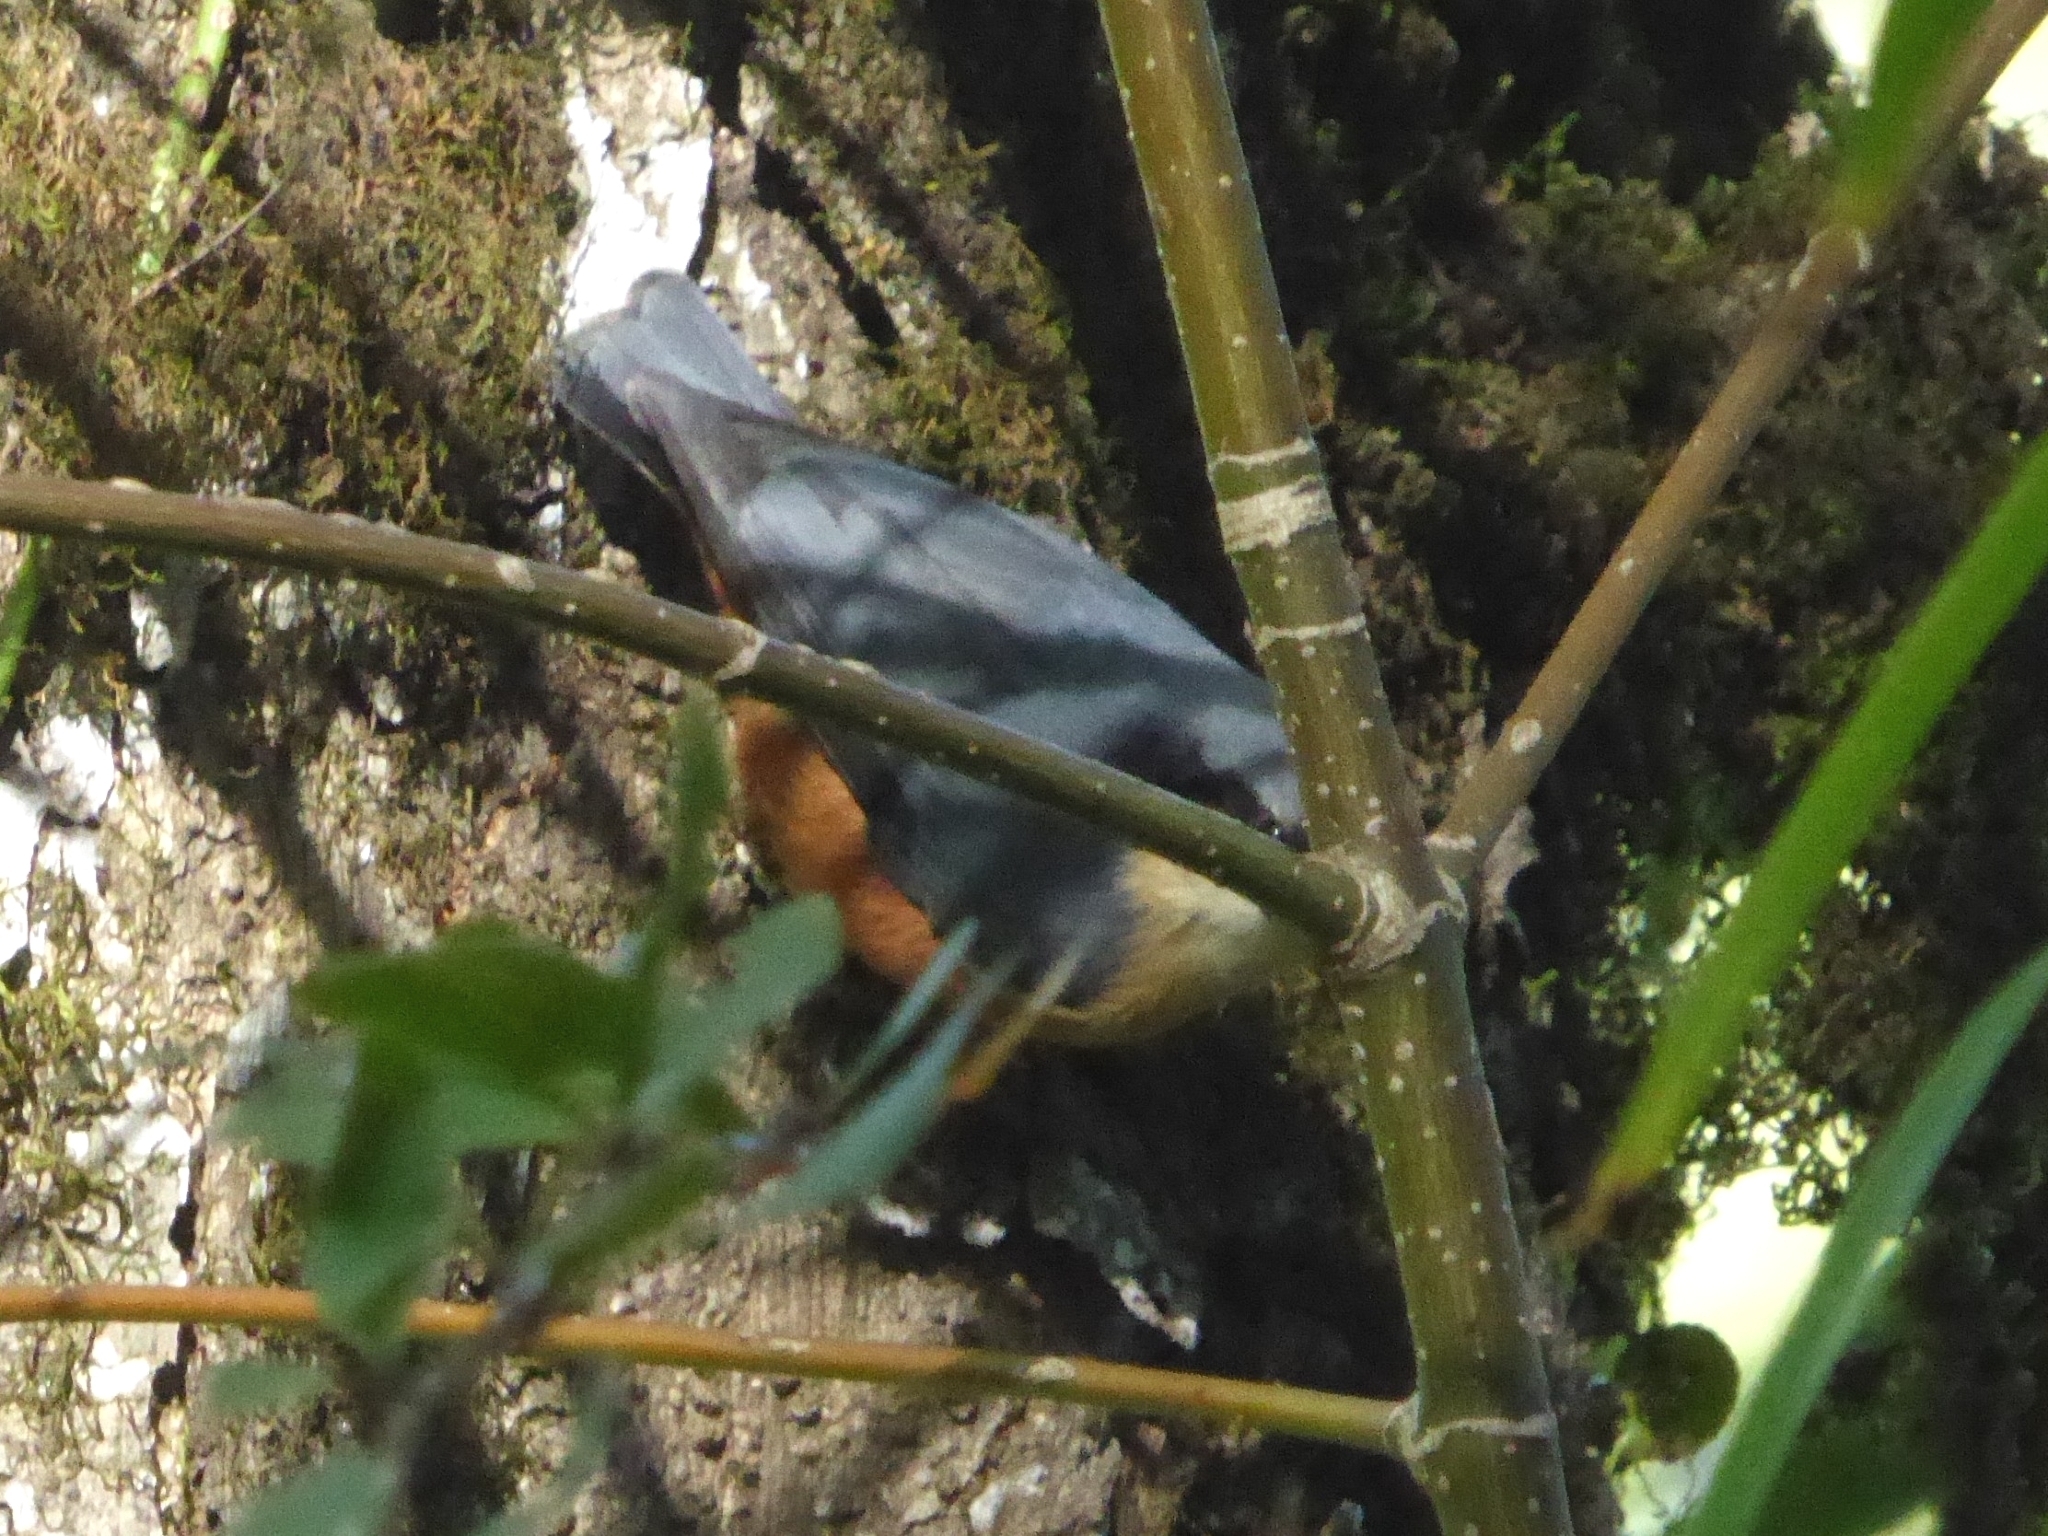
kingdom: Animalia
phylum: Chordata
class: Aves
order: Passeriformes
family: Sittidae
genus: Sitta
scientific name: Sitta himalayensis
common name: White-tailed nuthatch
